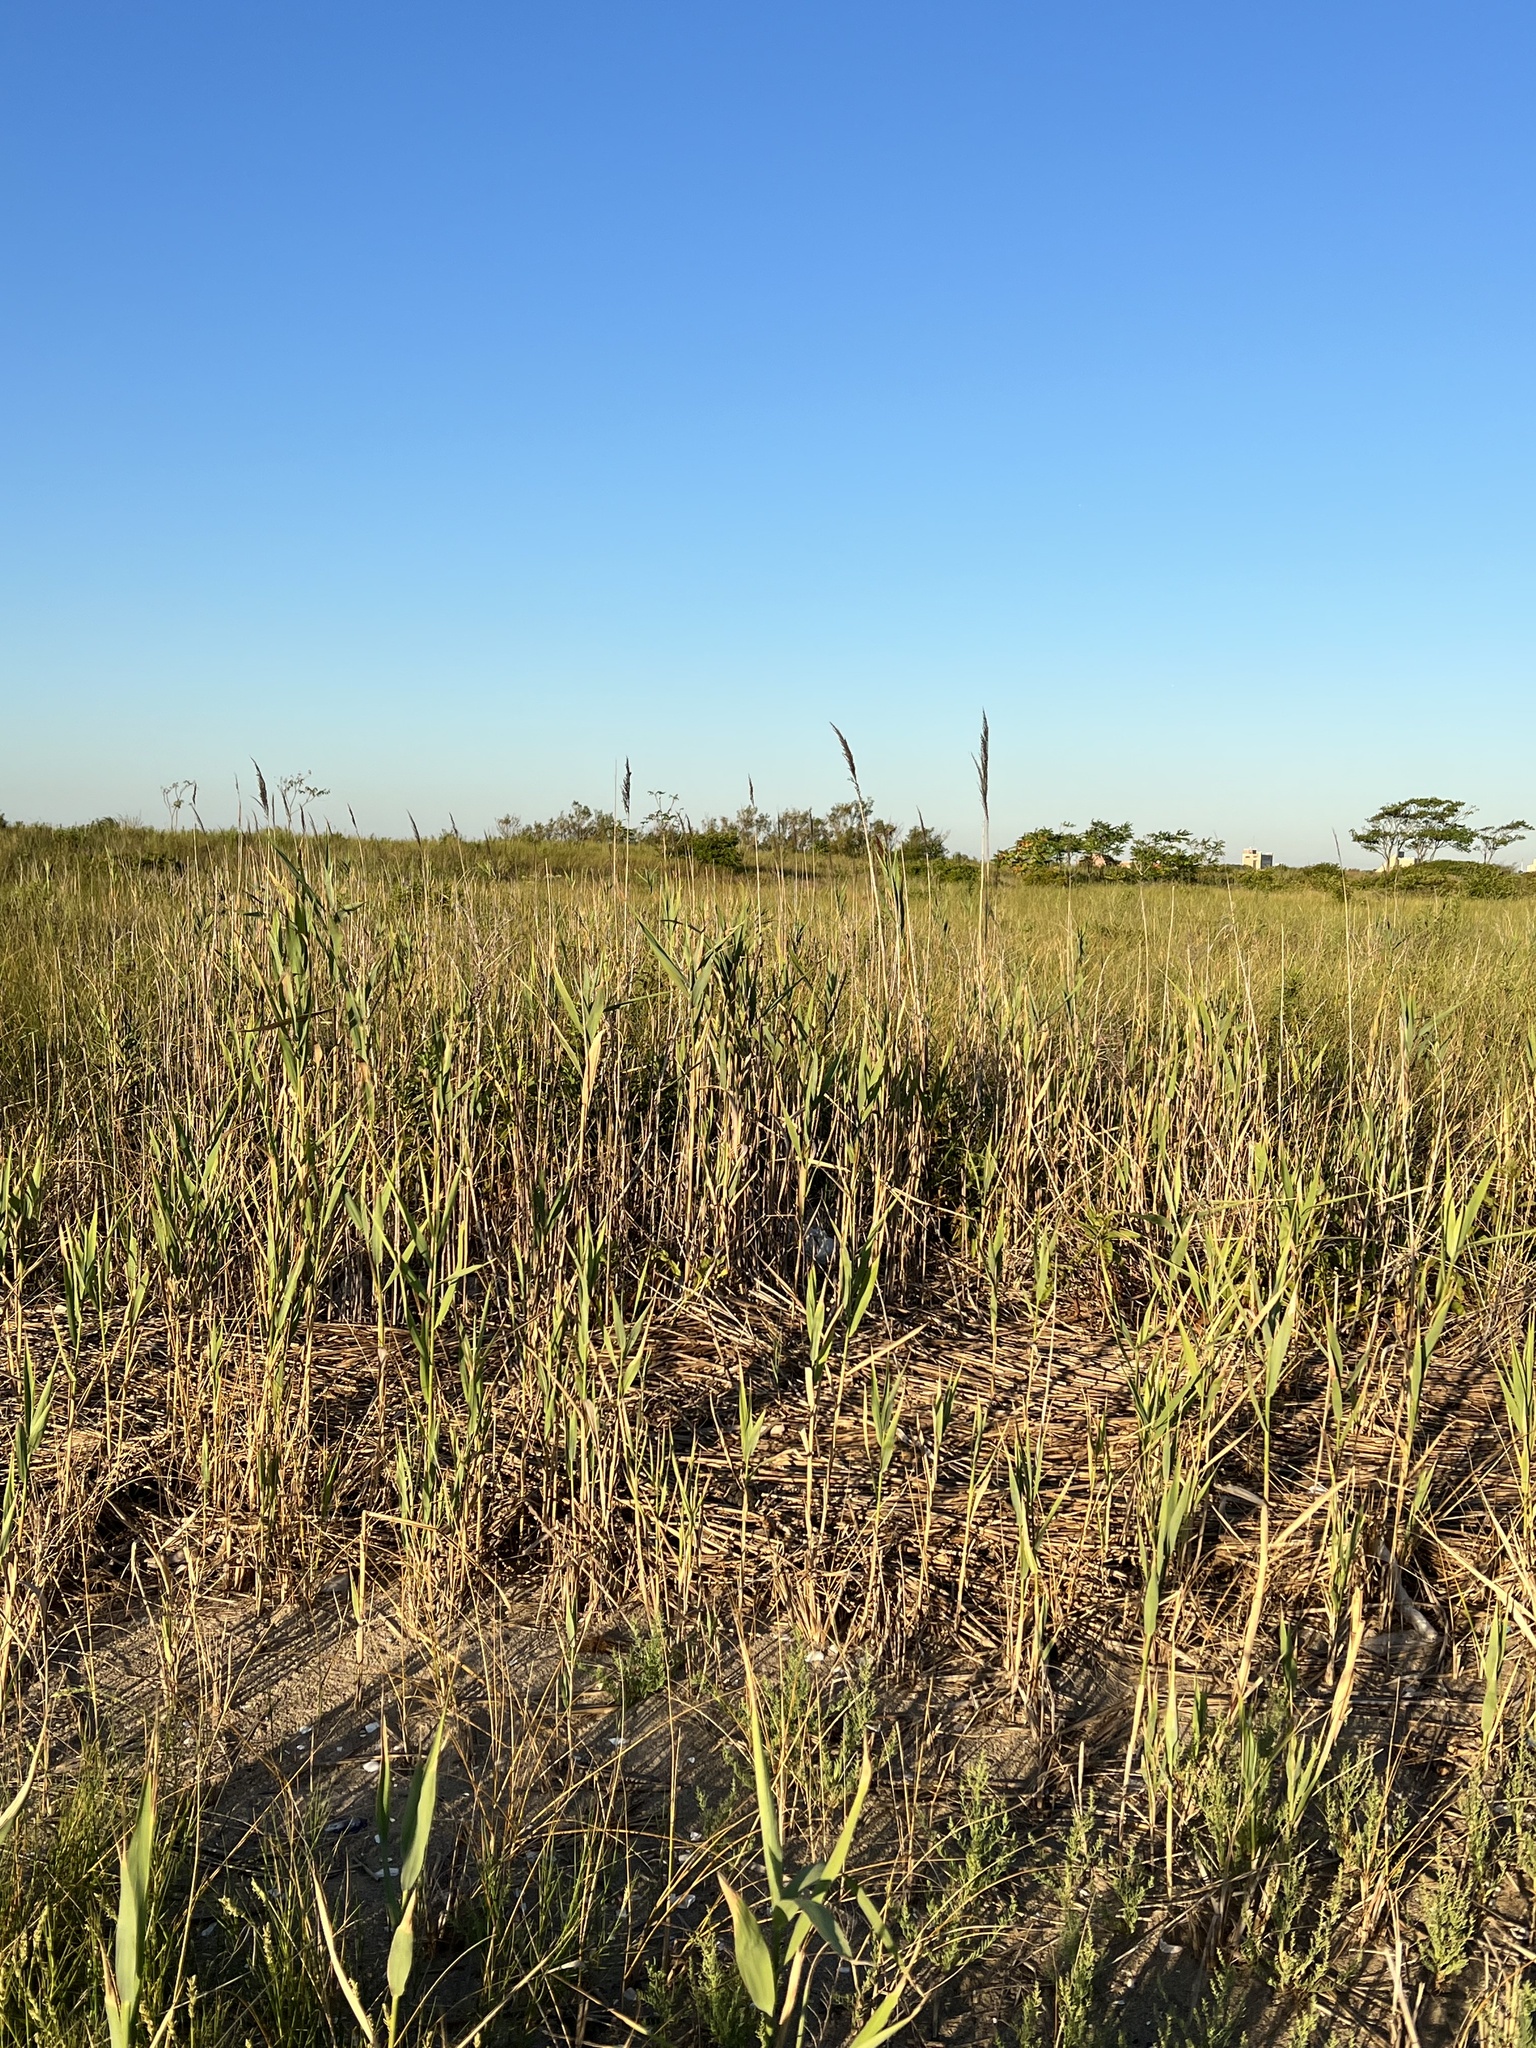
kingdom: Plantae
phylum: Tracheophyta
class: Liliopsida
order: Poales
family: Poaceae
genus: Phragmites
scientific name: Phragmites australis
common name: Common reed
